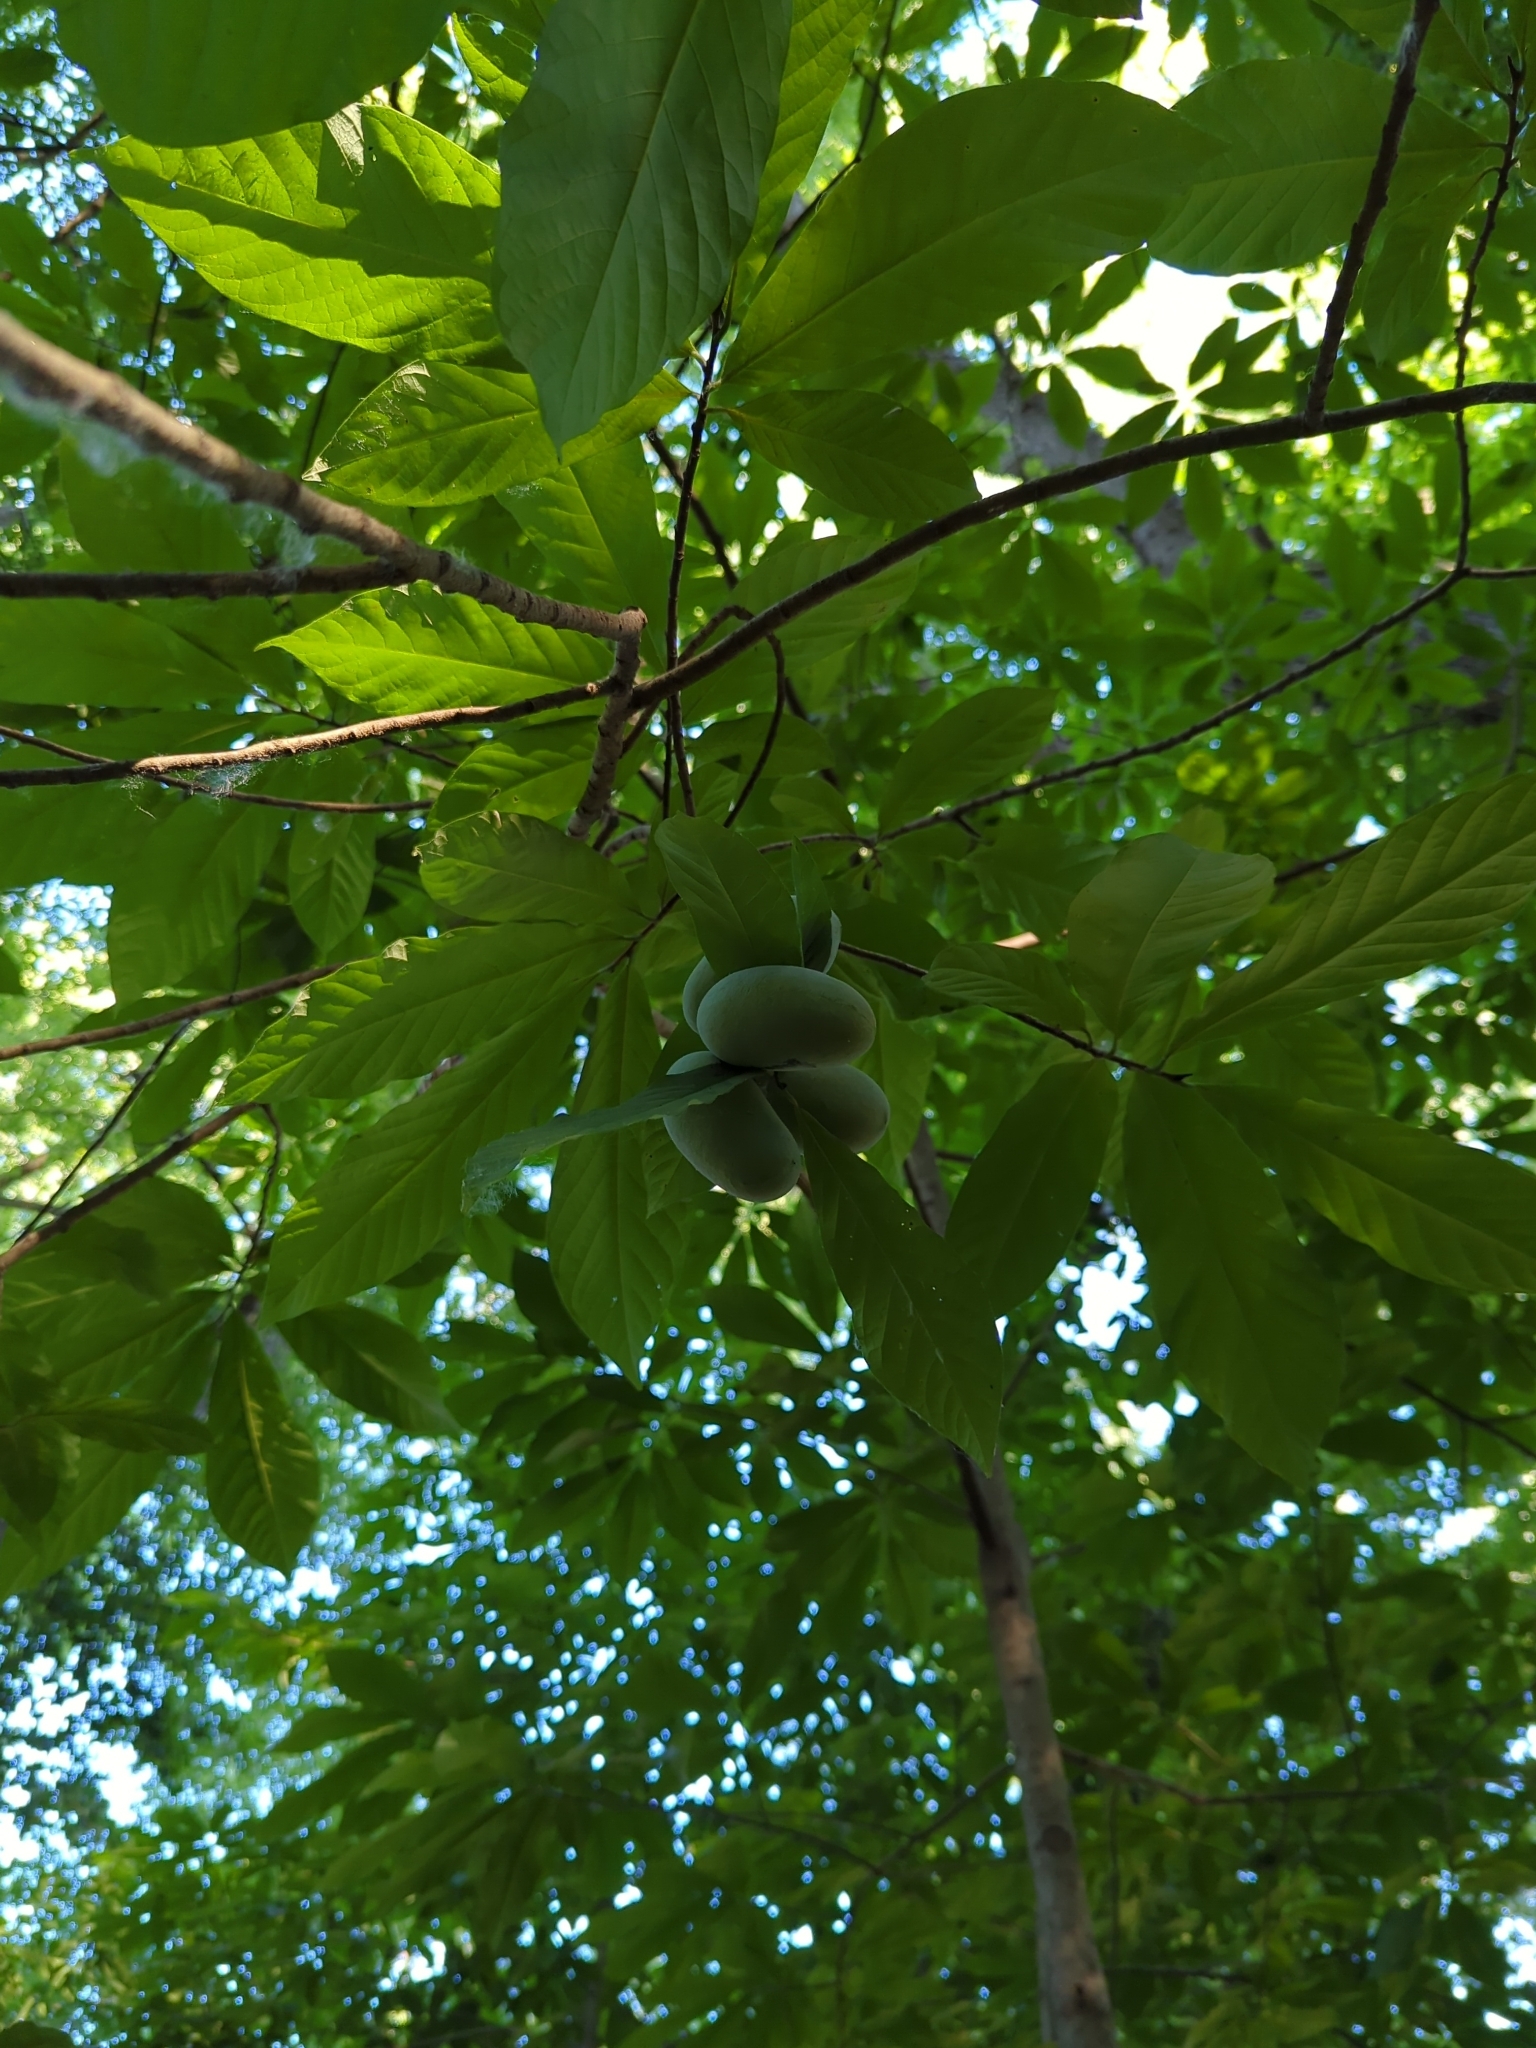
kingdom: Plantae
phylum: Tracheophyta
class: Magnoliopsida
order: Magnoliales
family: Annonaceae
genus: Asimina
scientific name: Asimina triloba
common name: Dog-banana
